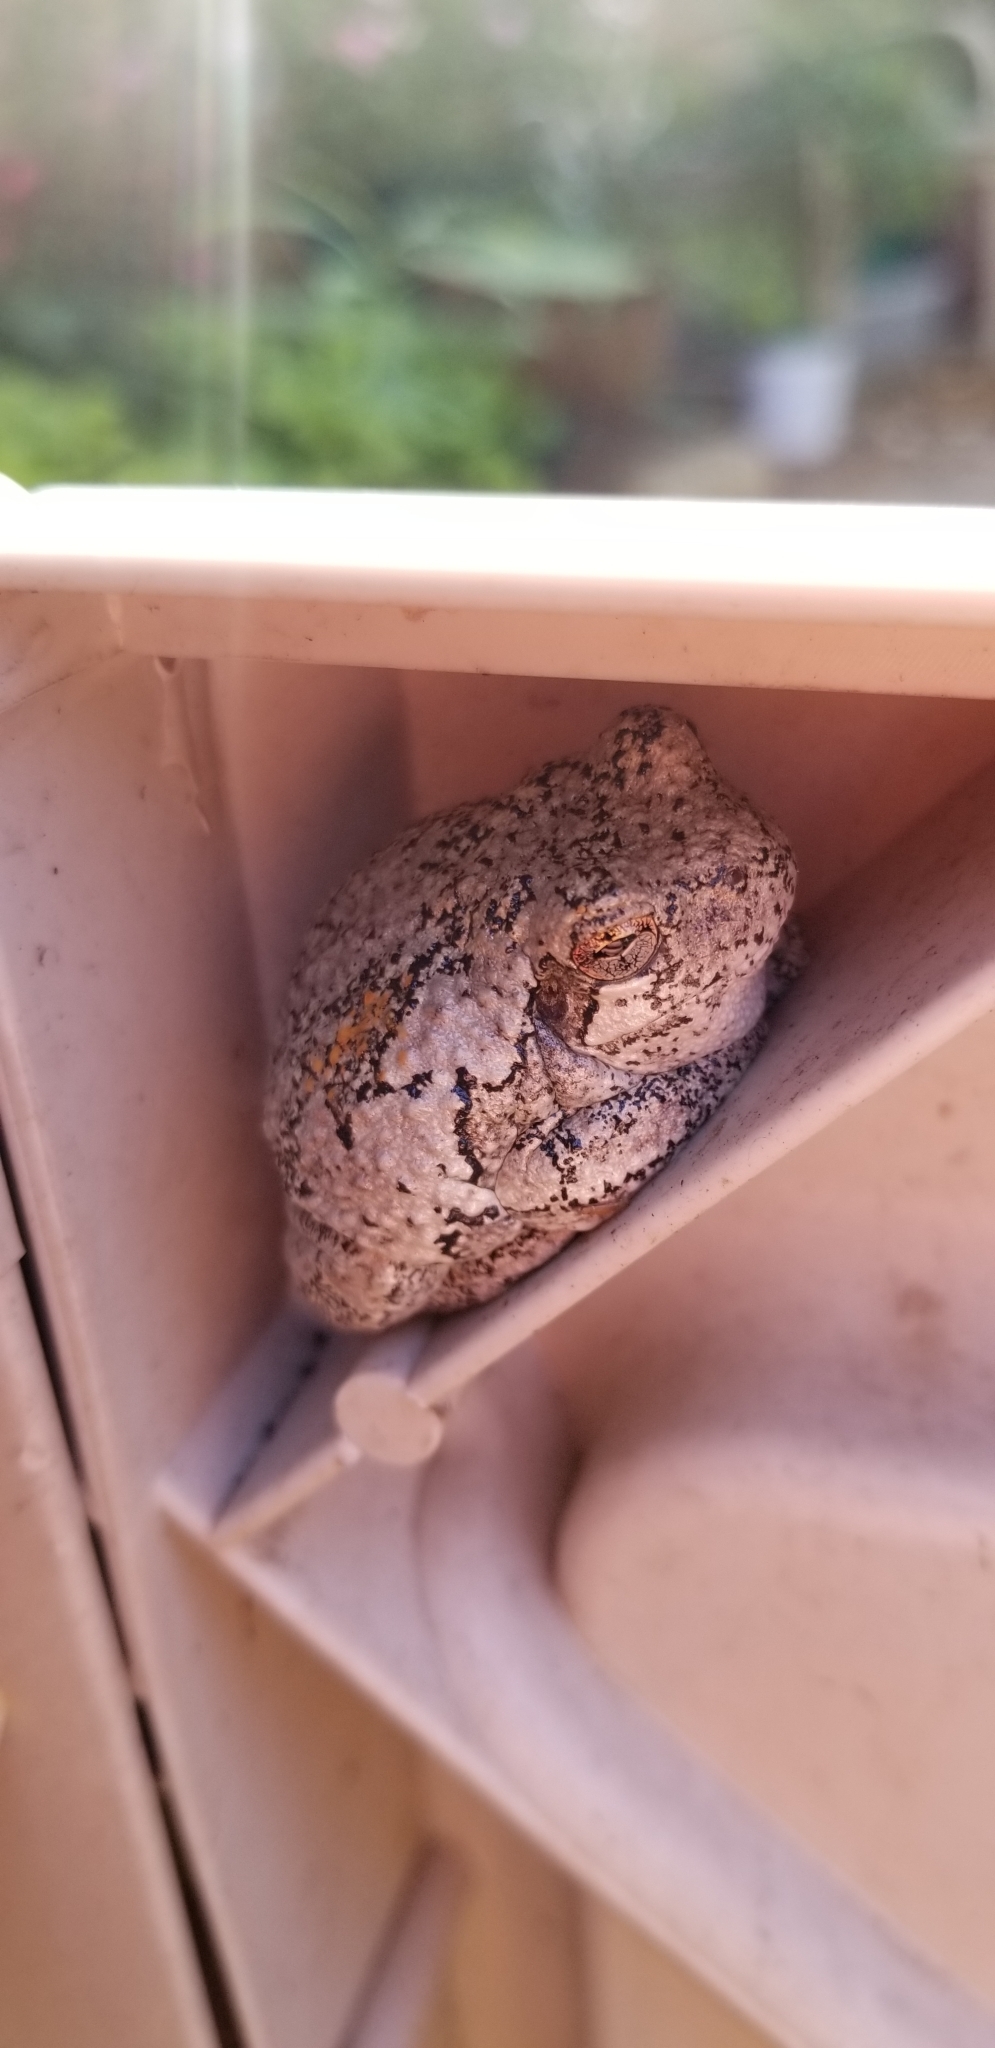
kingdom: Animalia
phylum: Chordata
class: Amphibia
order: Anura
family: Hylidae
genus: Hyla
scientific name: Hyla
